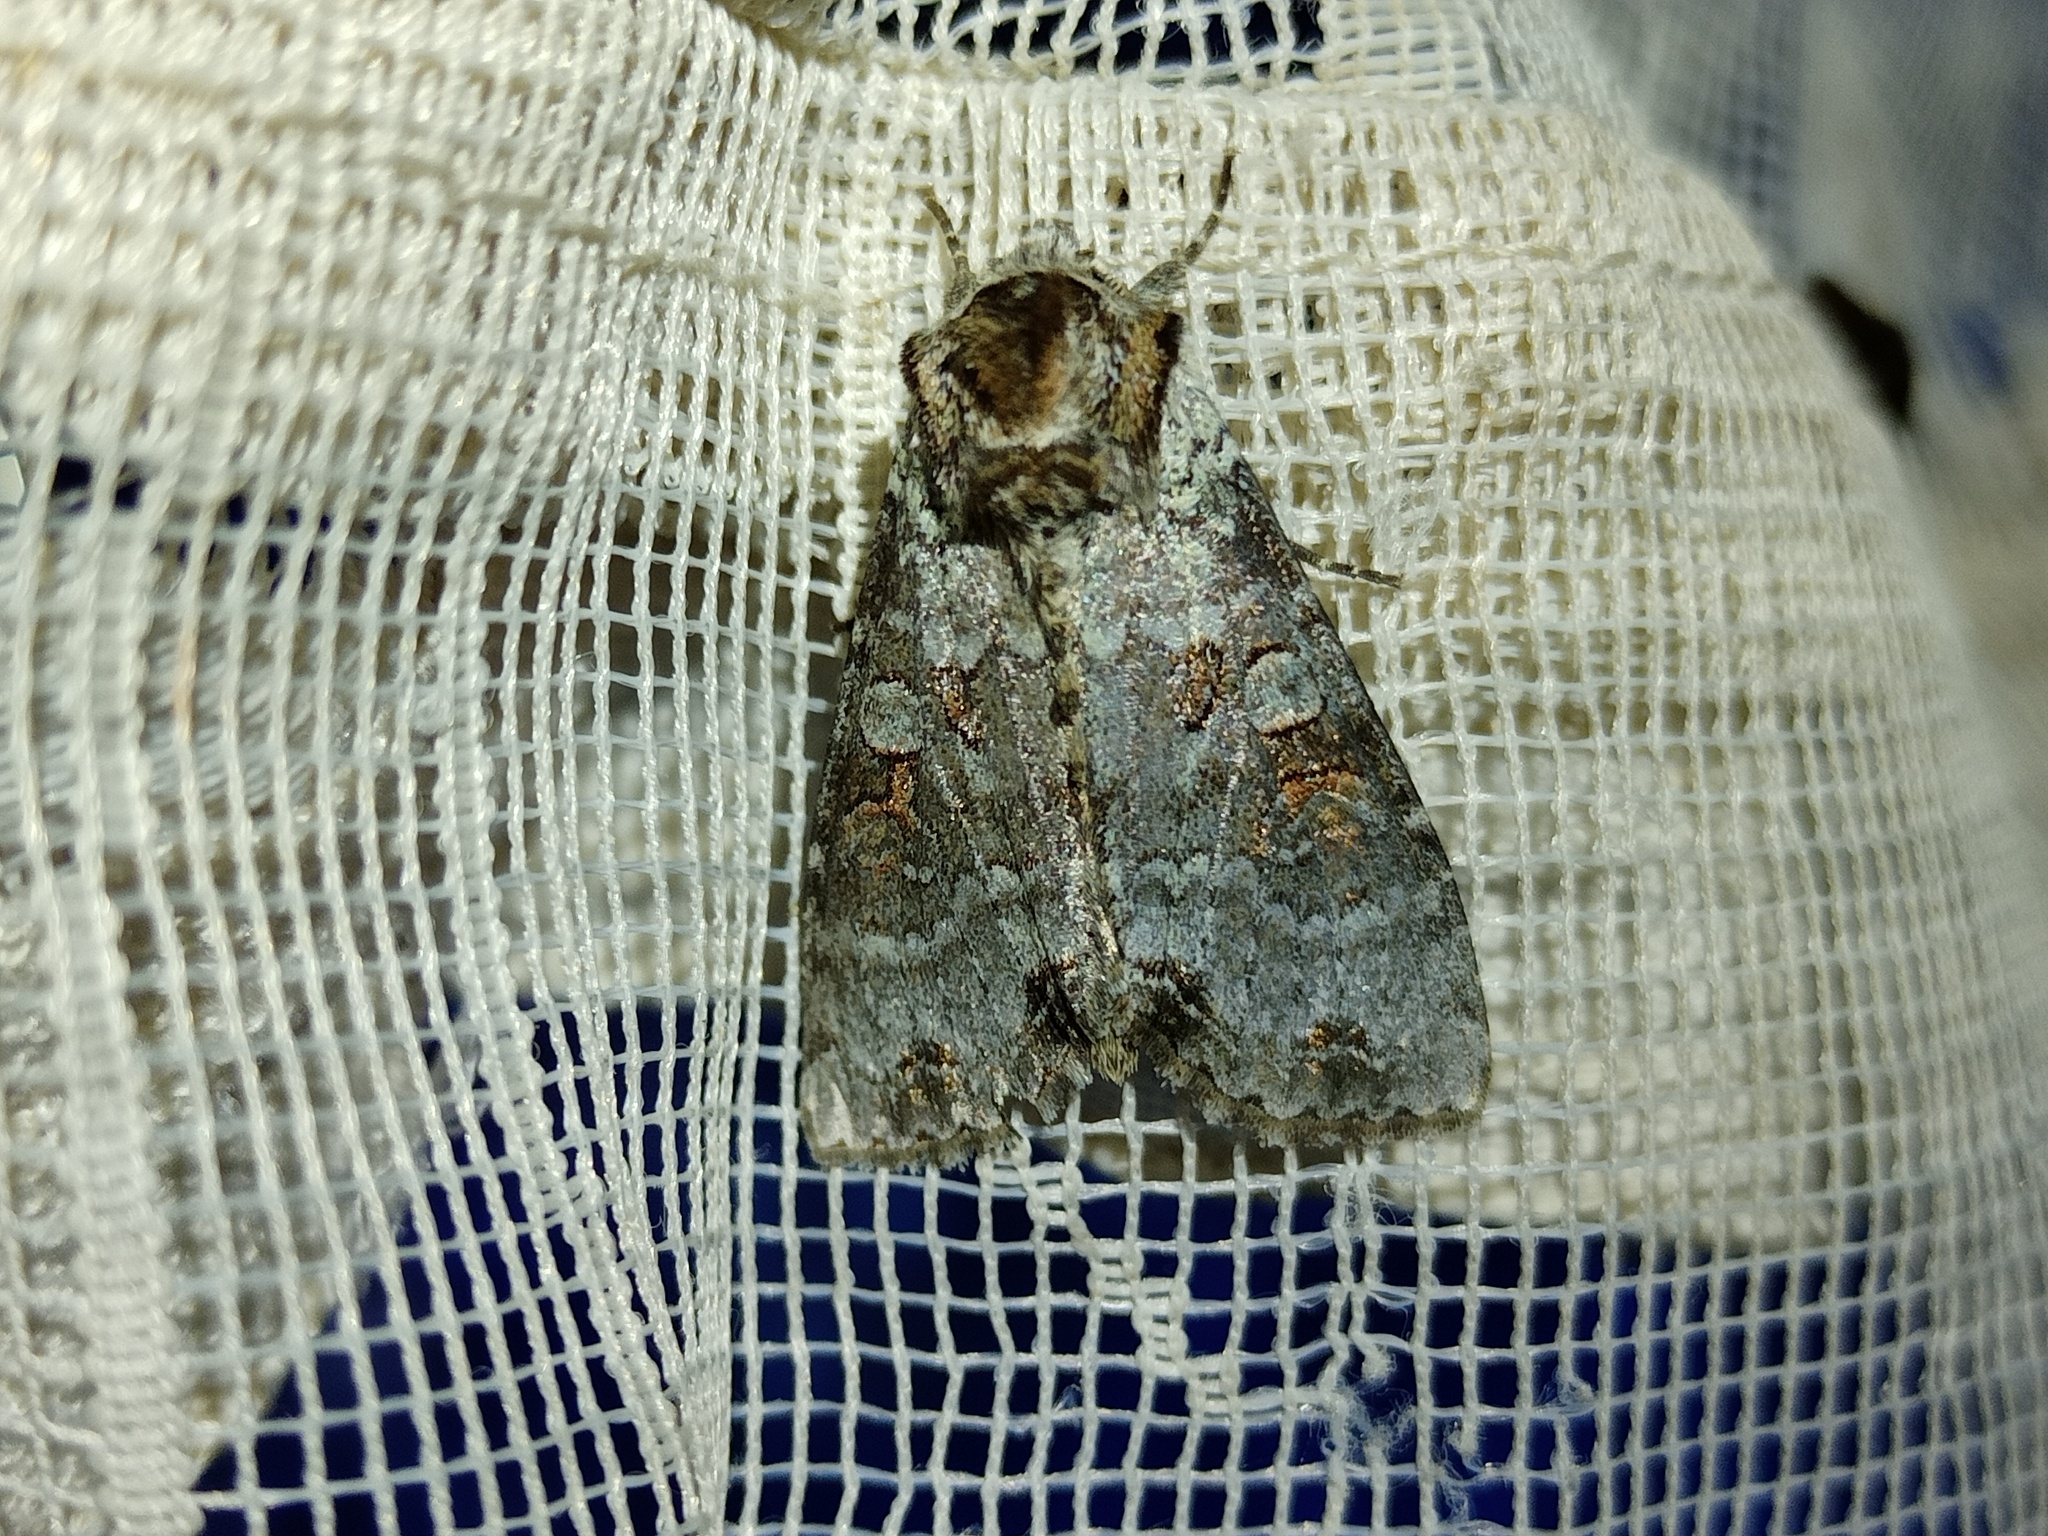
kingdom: Animalia
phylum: Arthropoda
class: Insecta
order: Lepidoptera
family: Noctuidae
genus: Polia
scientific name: Polia hepatica
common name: Silvery arches
